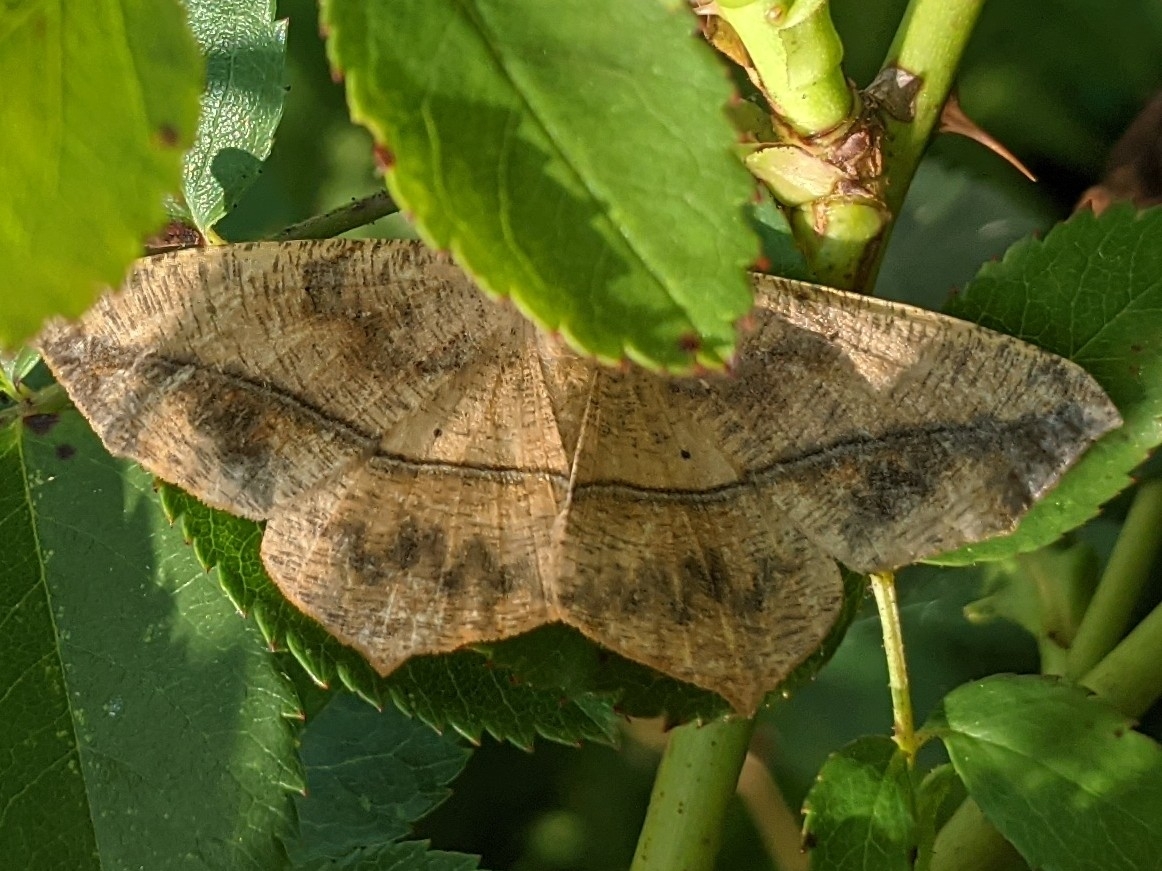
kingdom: Animalia
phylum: Arthropoda
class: Insecta
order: Lepidoptera
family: Geometridae
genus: Prochoerodes
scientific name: Prochoerodes lineola
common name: Large maple spanworm
